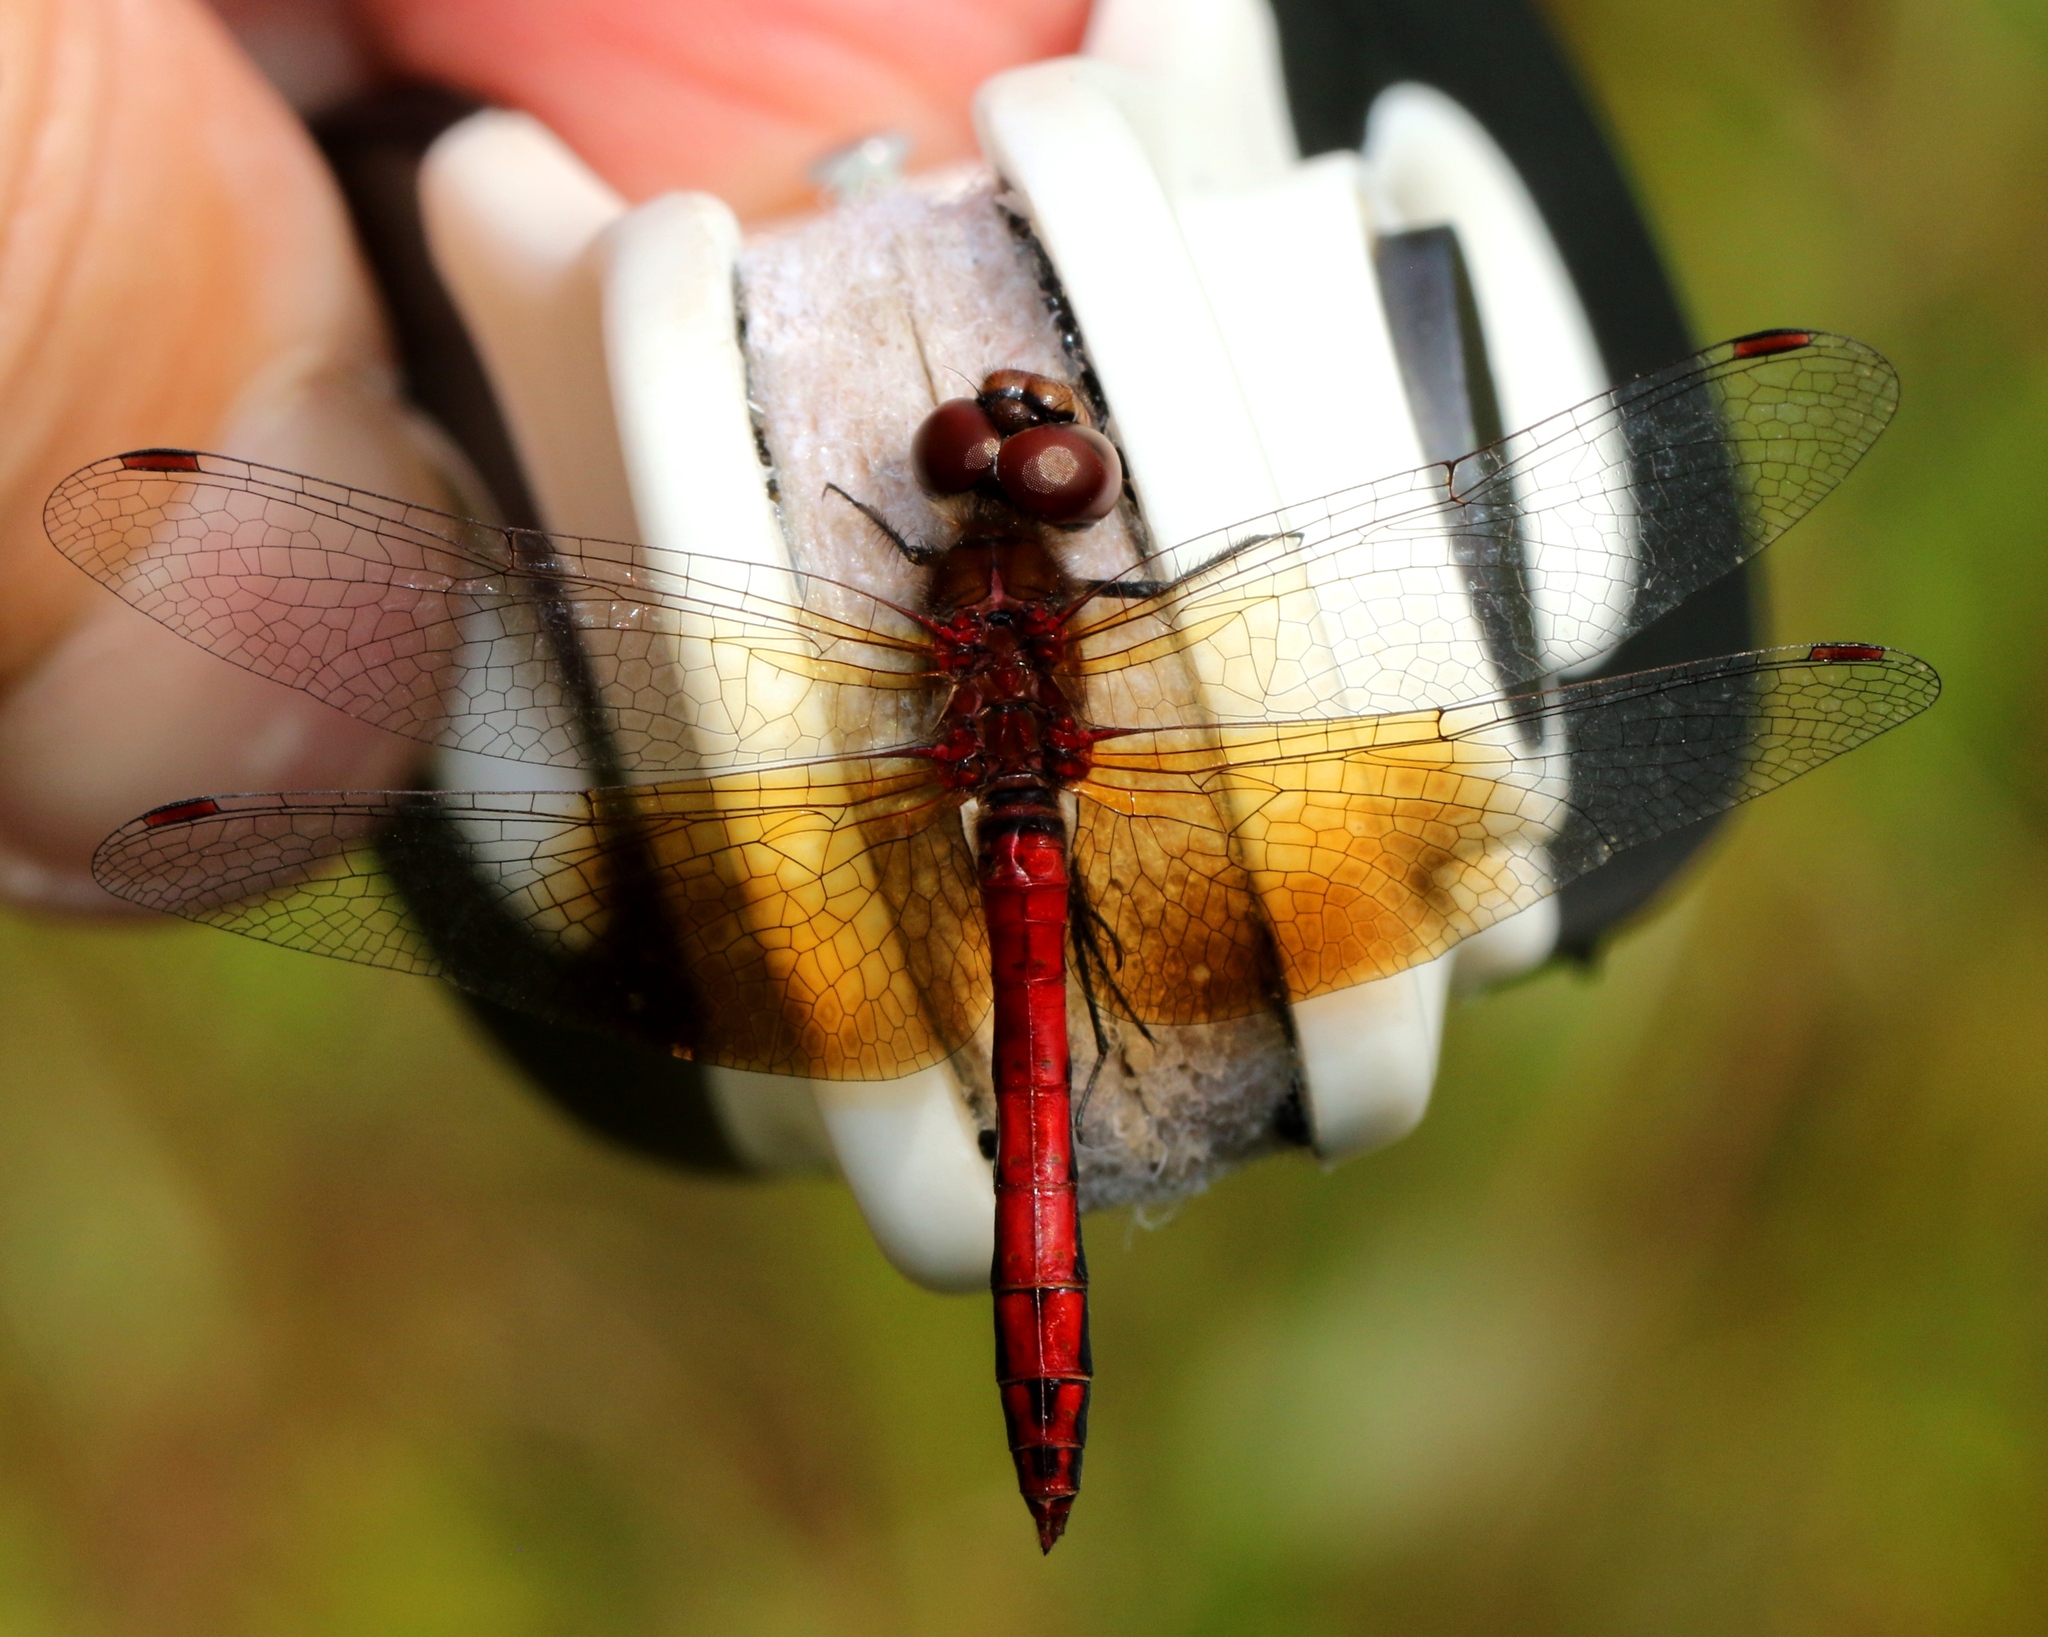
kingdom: Animalia
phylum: Arthropoda
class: Insecta
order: Odonata
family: Libellulidae
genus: Sympetrum
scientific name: Sympetrum semicinctum
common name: Band-winged meadowhawk
